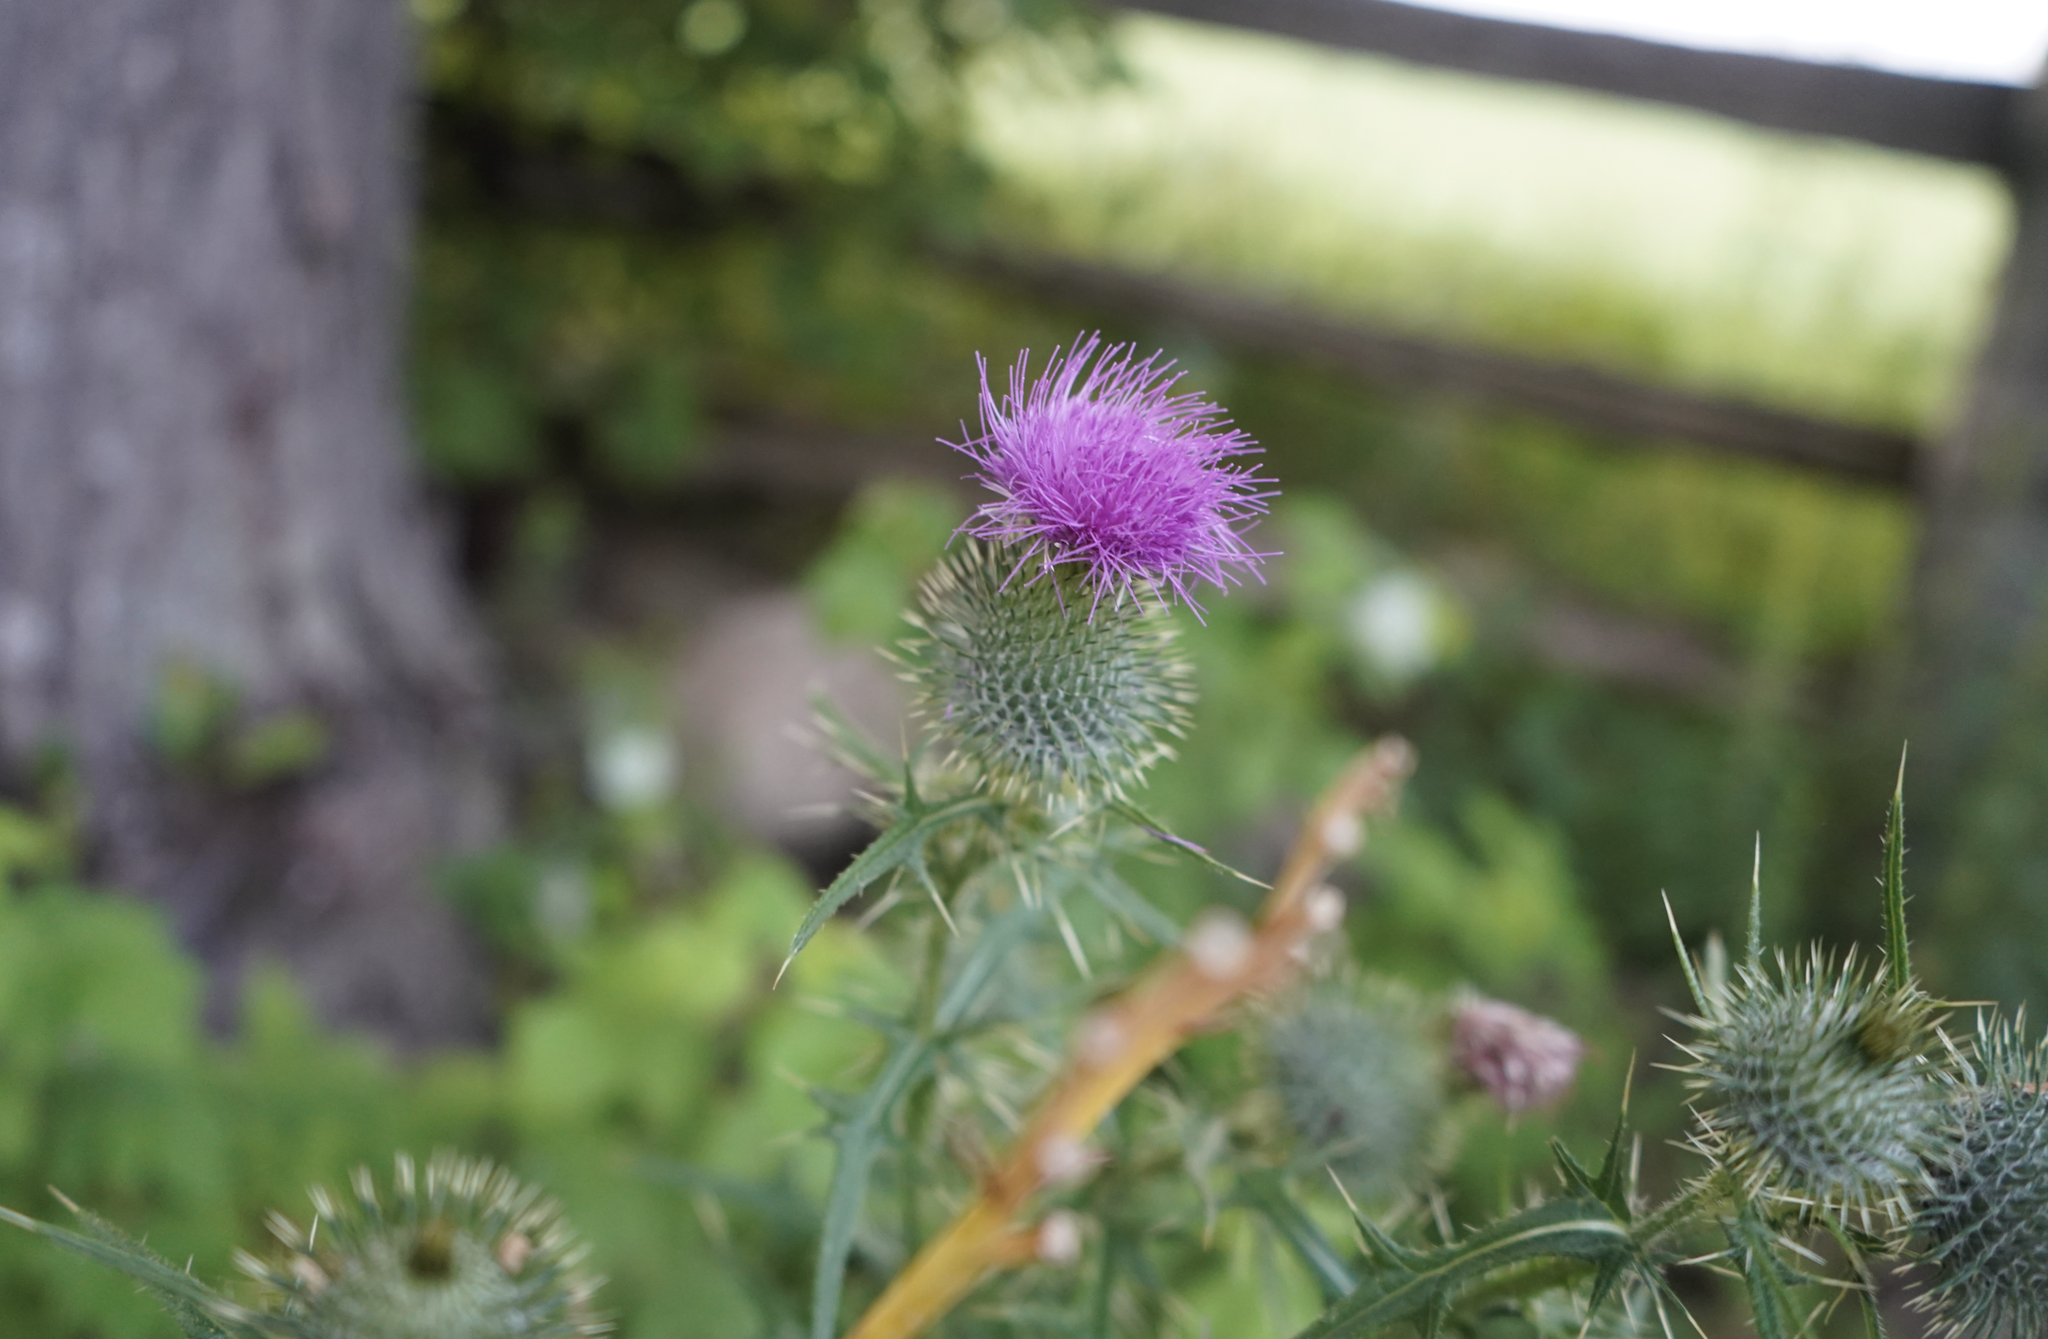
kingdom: Plantae
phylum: Tracheophyta
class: Magnoliopsida
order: Asterales
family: Asteraceae
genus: Cirsium
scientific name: Cirsium vulgare
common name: Bull thistle
